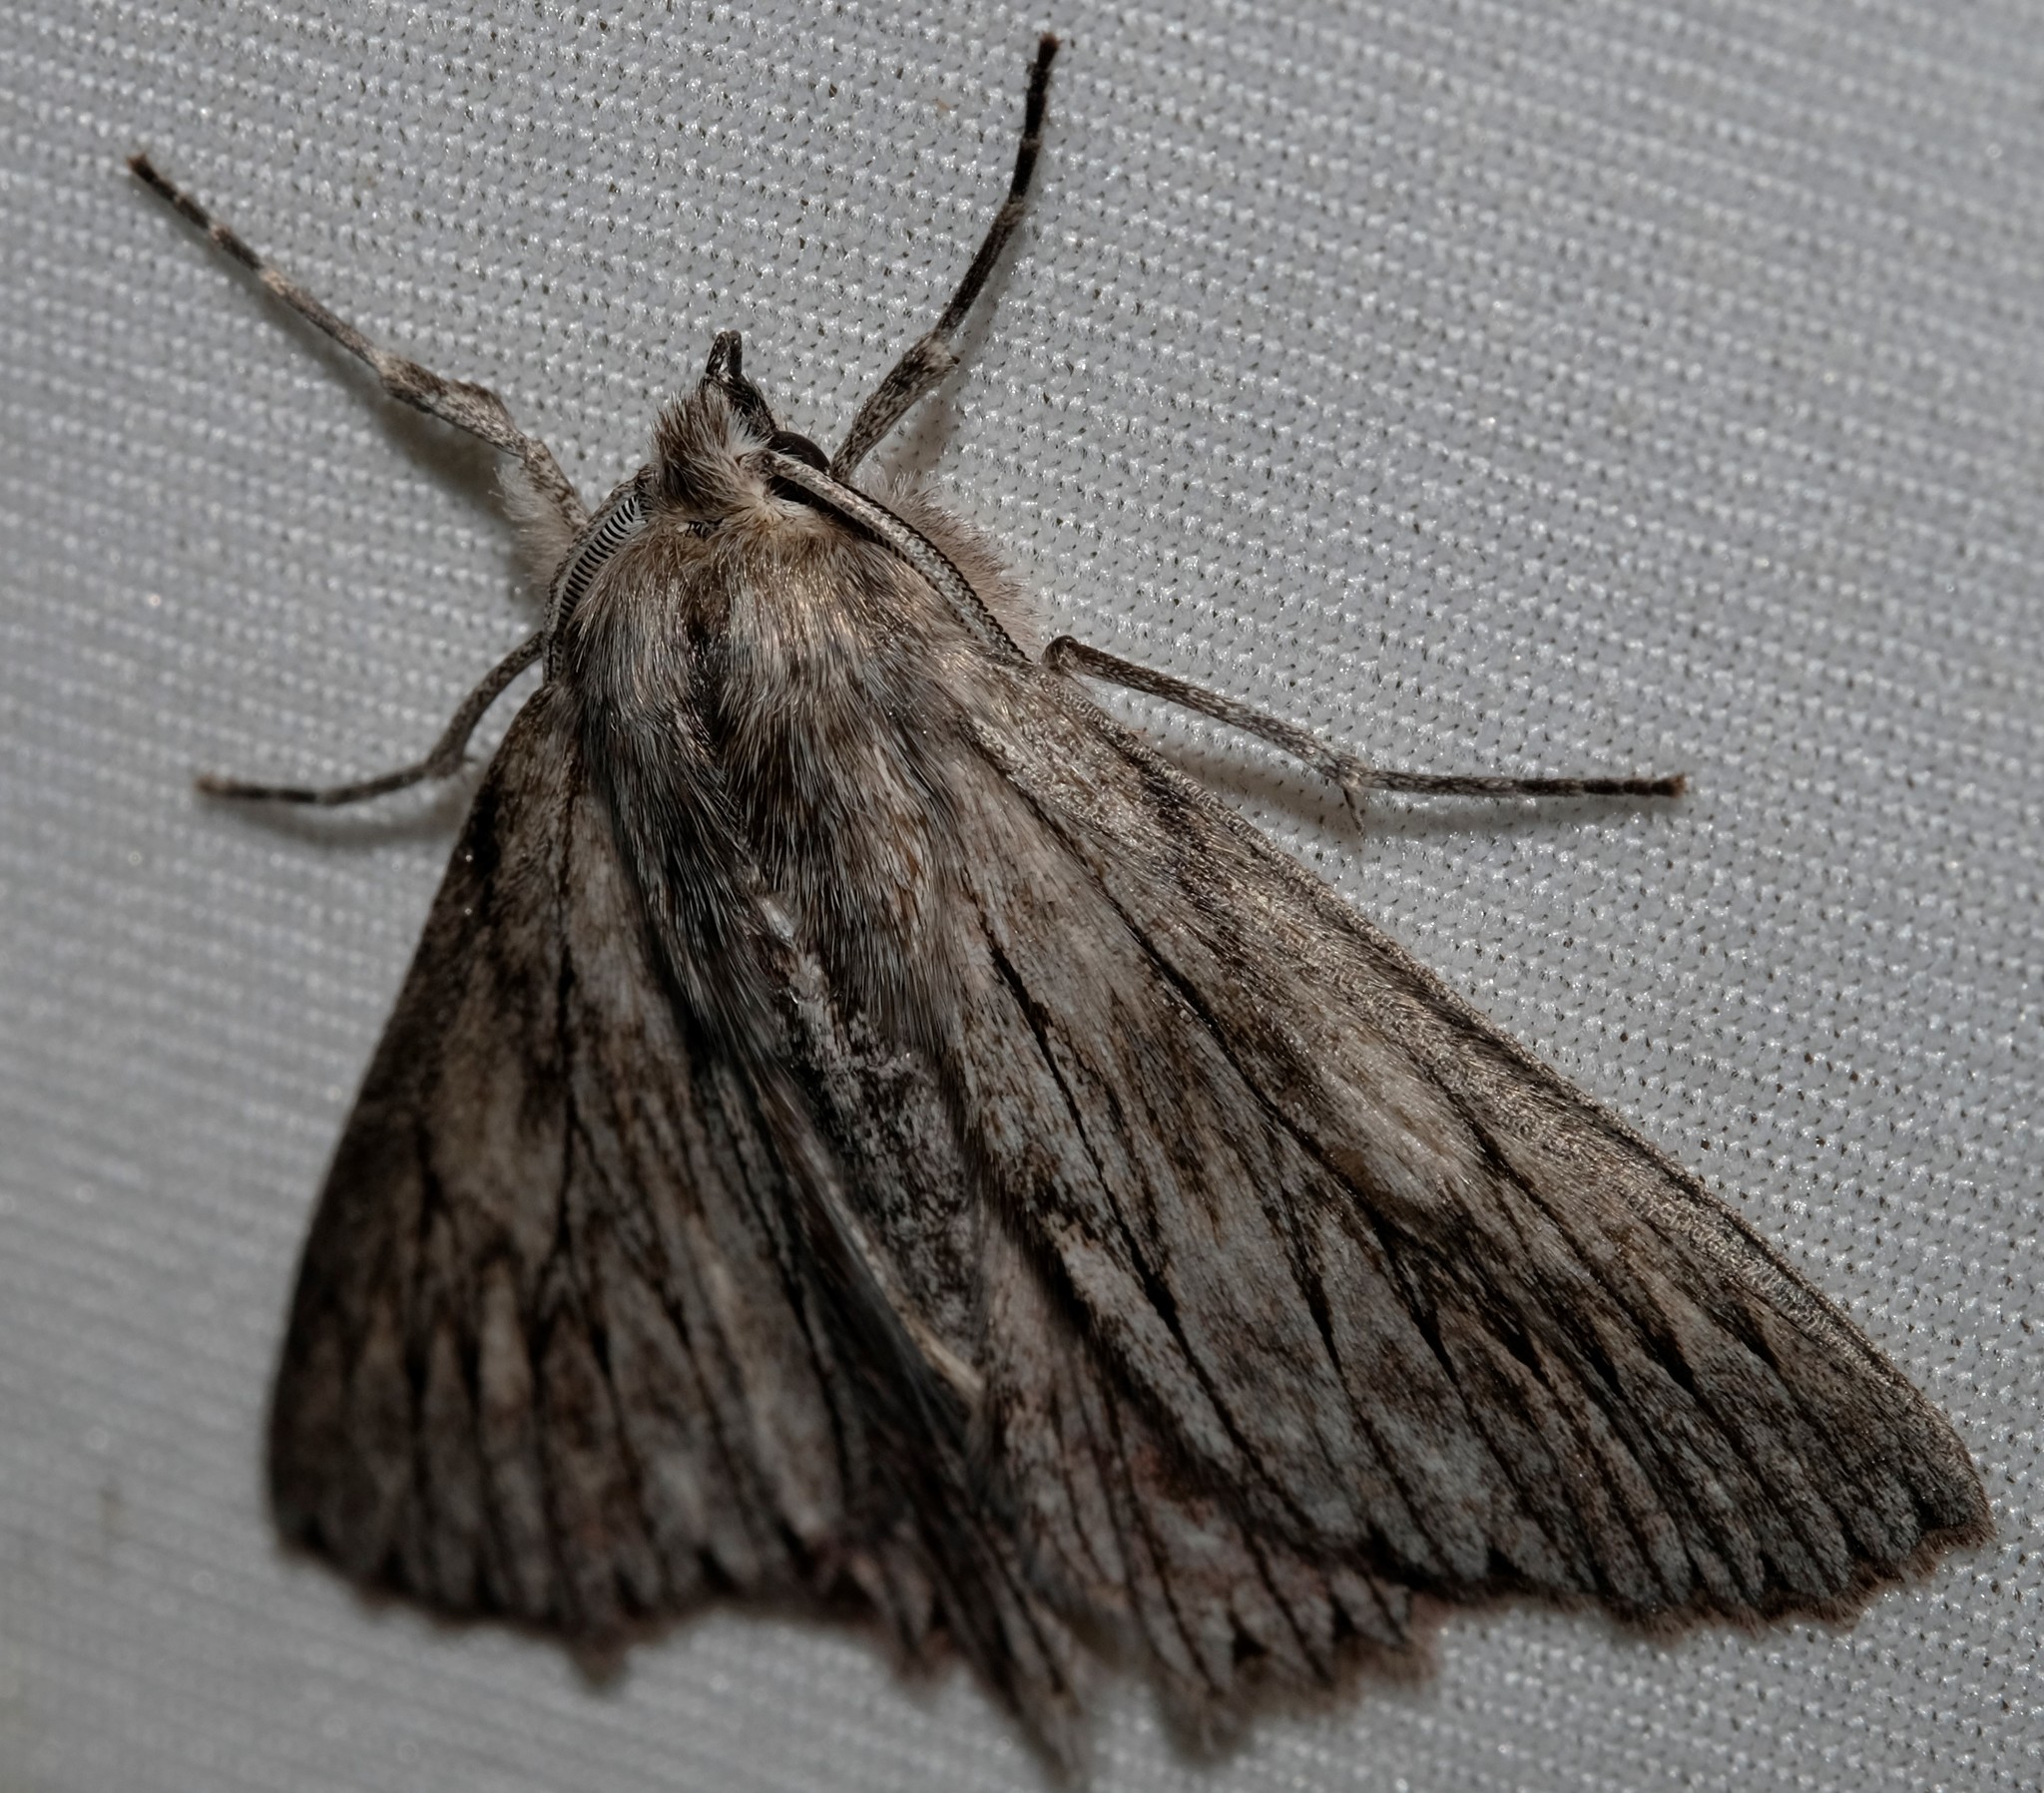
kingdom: Animalia
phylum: Arthropoda
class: Insecta
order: Lepidoptera
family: Geometridae
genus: Cyneoterpna
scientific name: Cyneoterpna wilsoni
